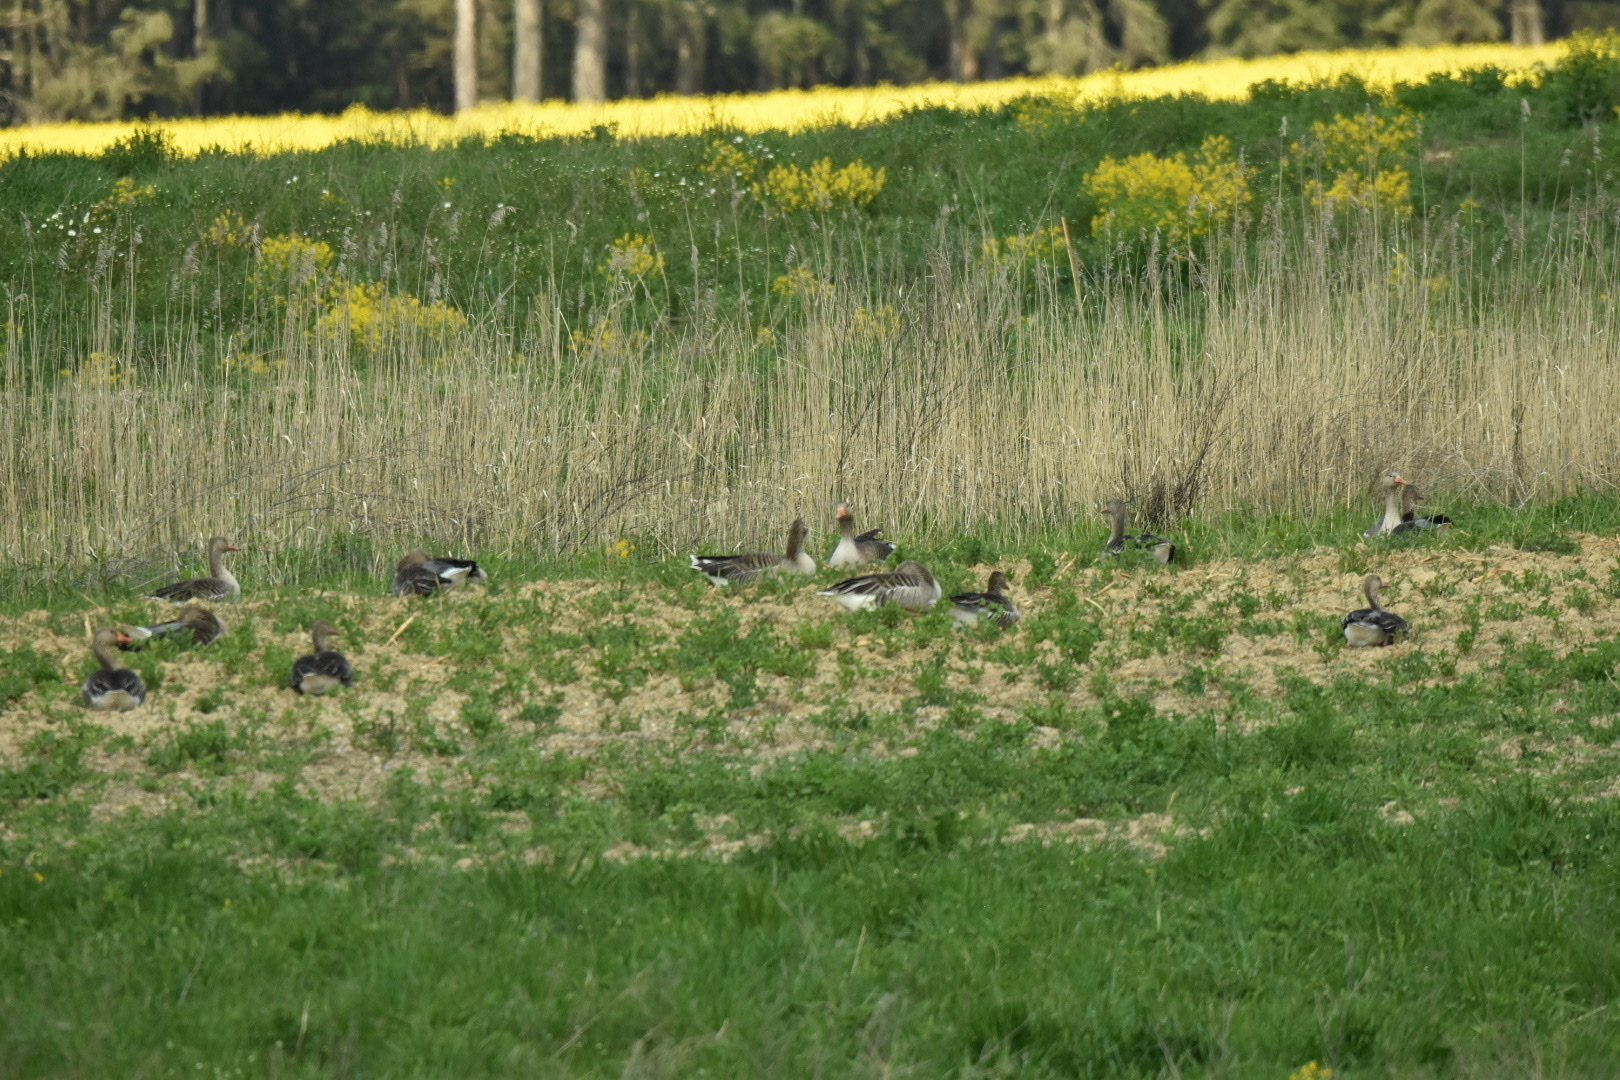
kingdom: Animalia
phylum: Chordata
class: Aves
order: Anseriformes
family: Anatidae
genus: Anser
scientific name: Anser anser
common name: Greylag goose
